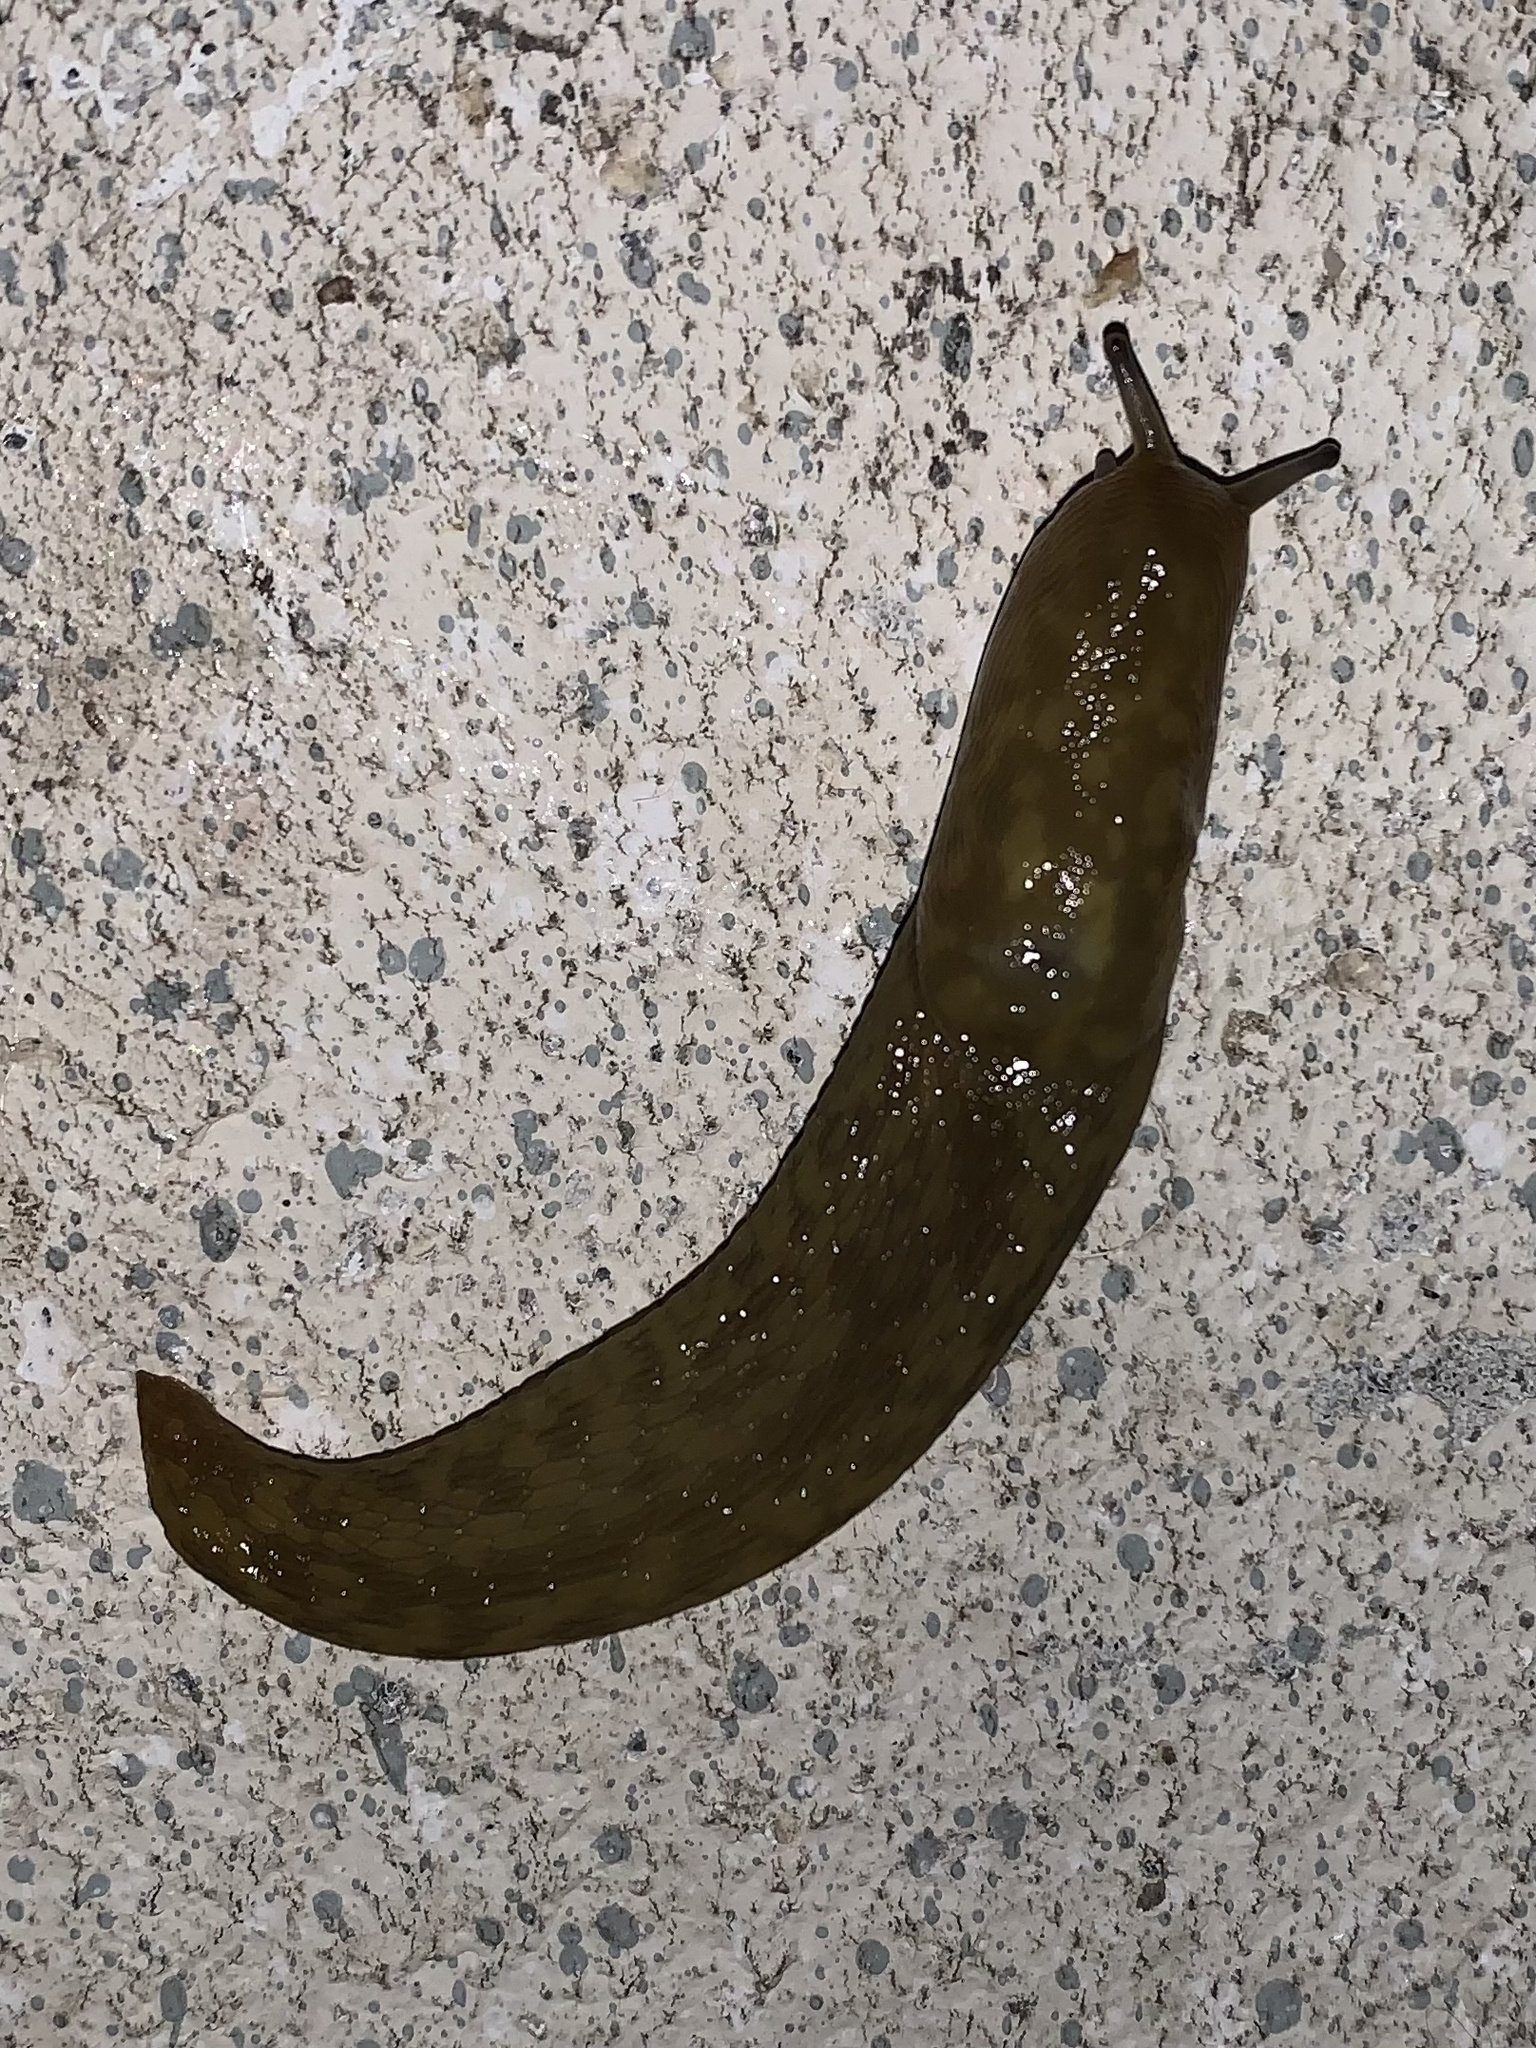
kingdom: Animalia
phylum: Mollusca
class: Gastropoda
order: Stylommatophora
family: Limacidae
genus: Limacus
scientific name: Limacus maculatus
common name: Irish yellow slug
